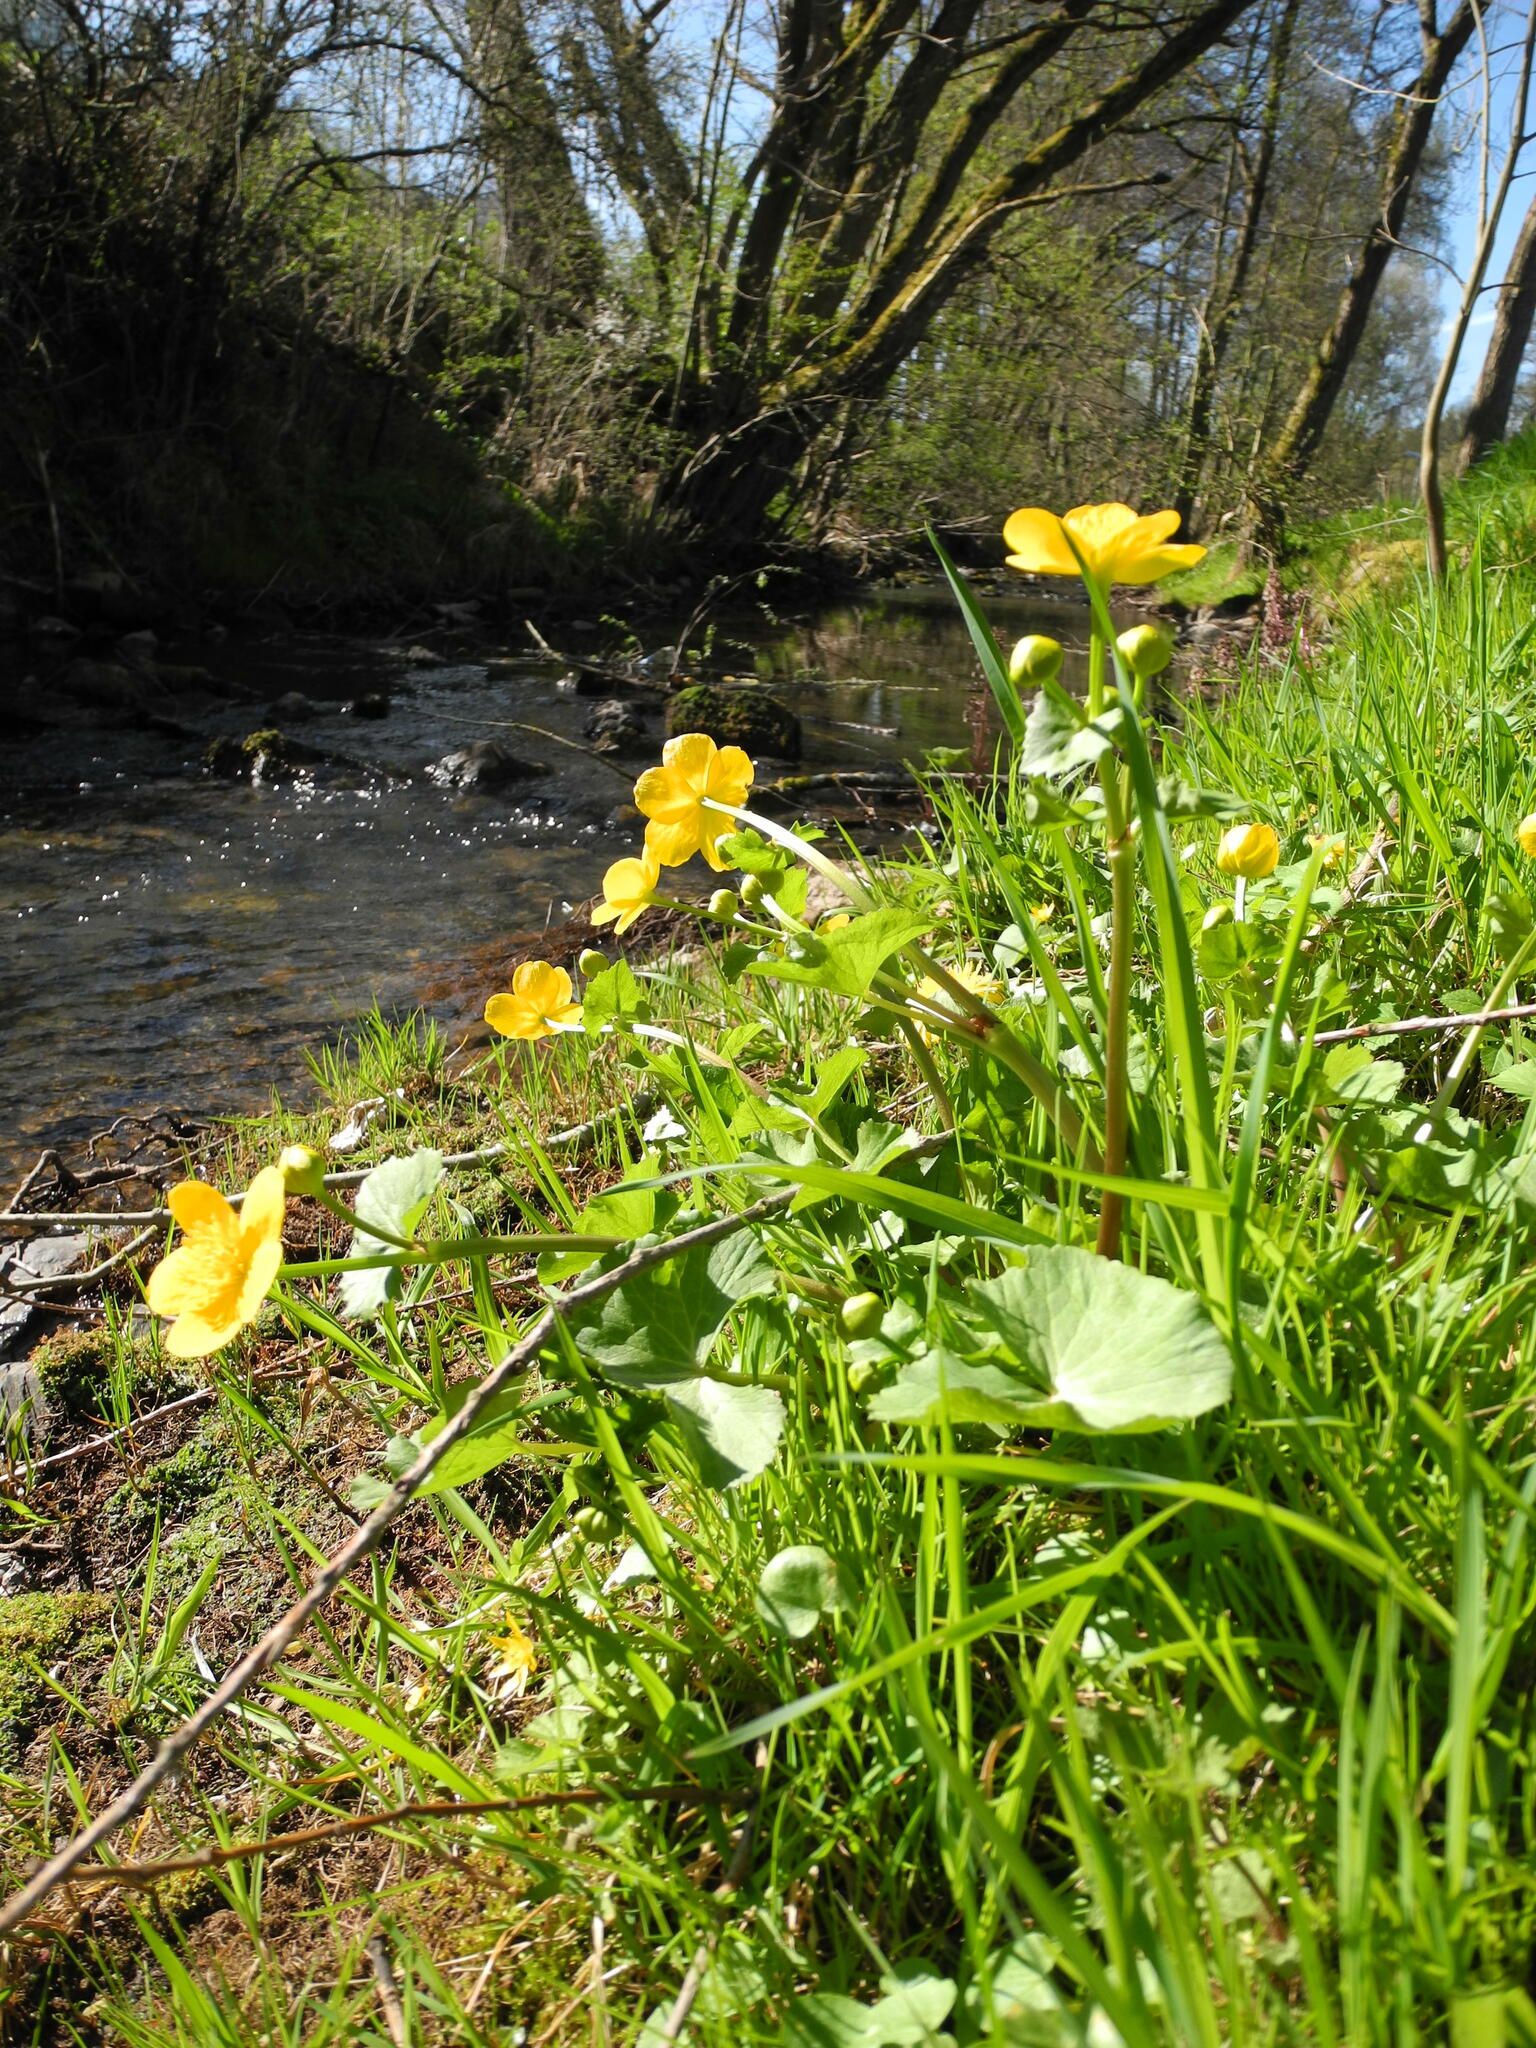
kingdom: Plantae
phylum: Tracheophyta
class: Magnoliopsida
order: Ranunculales
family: Ranunculaceae
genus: Caltha
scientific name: Caltha palustris
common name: Marsh marigold
